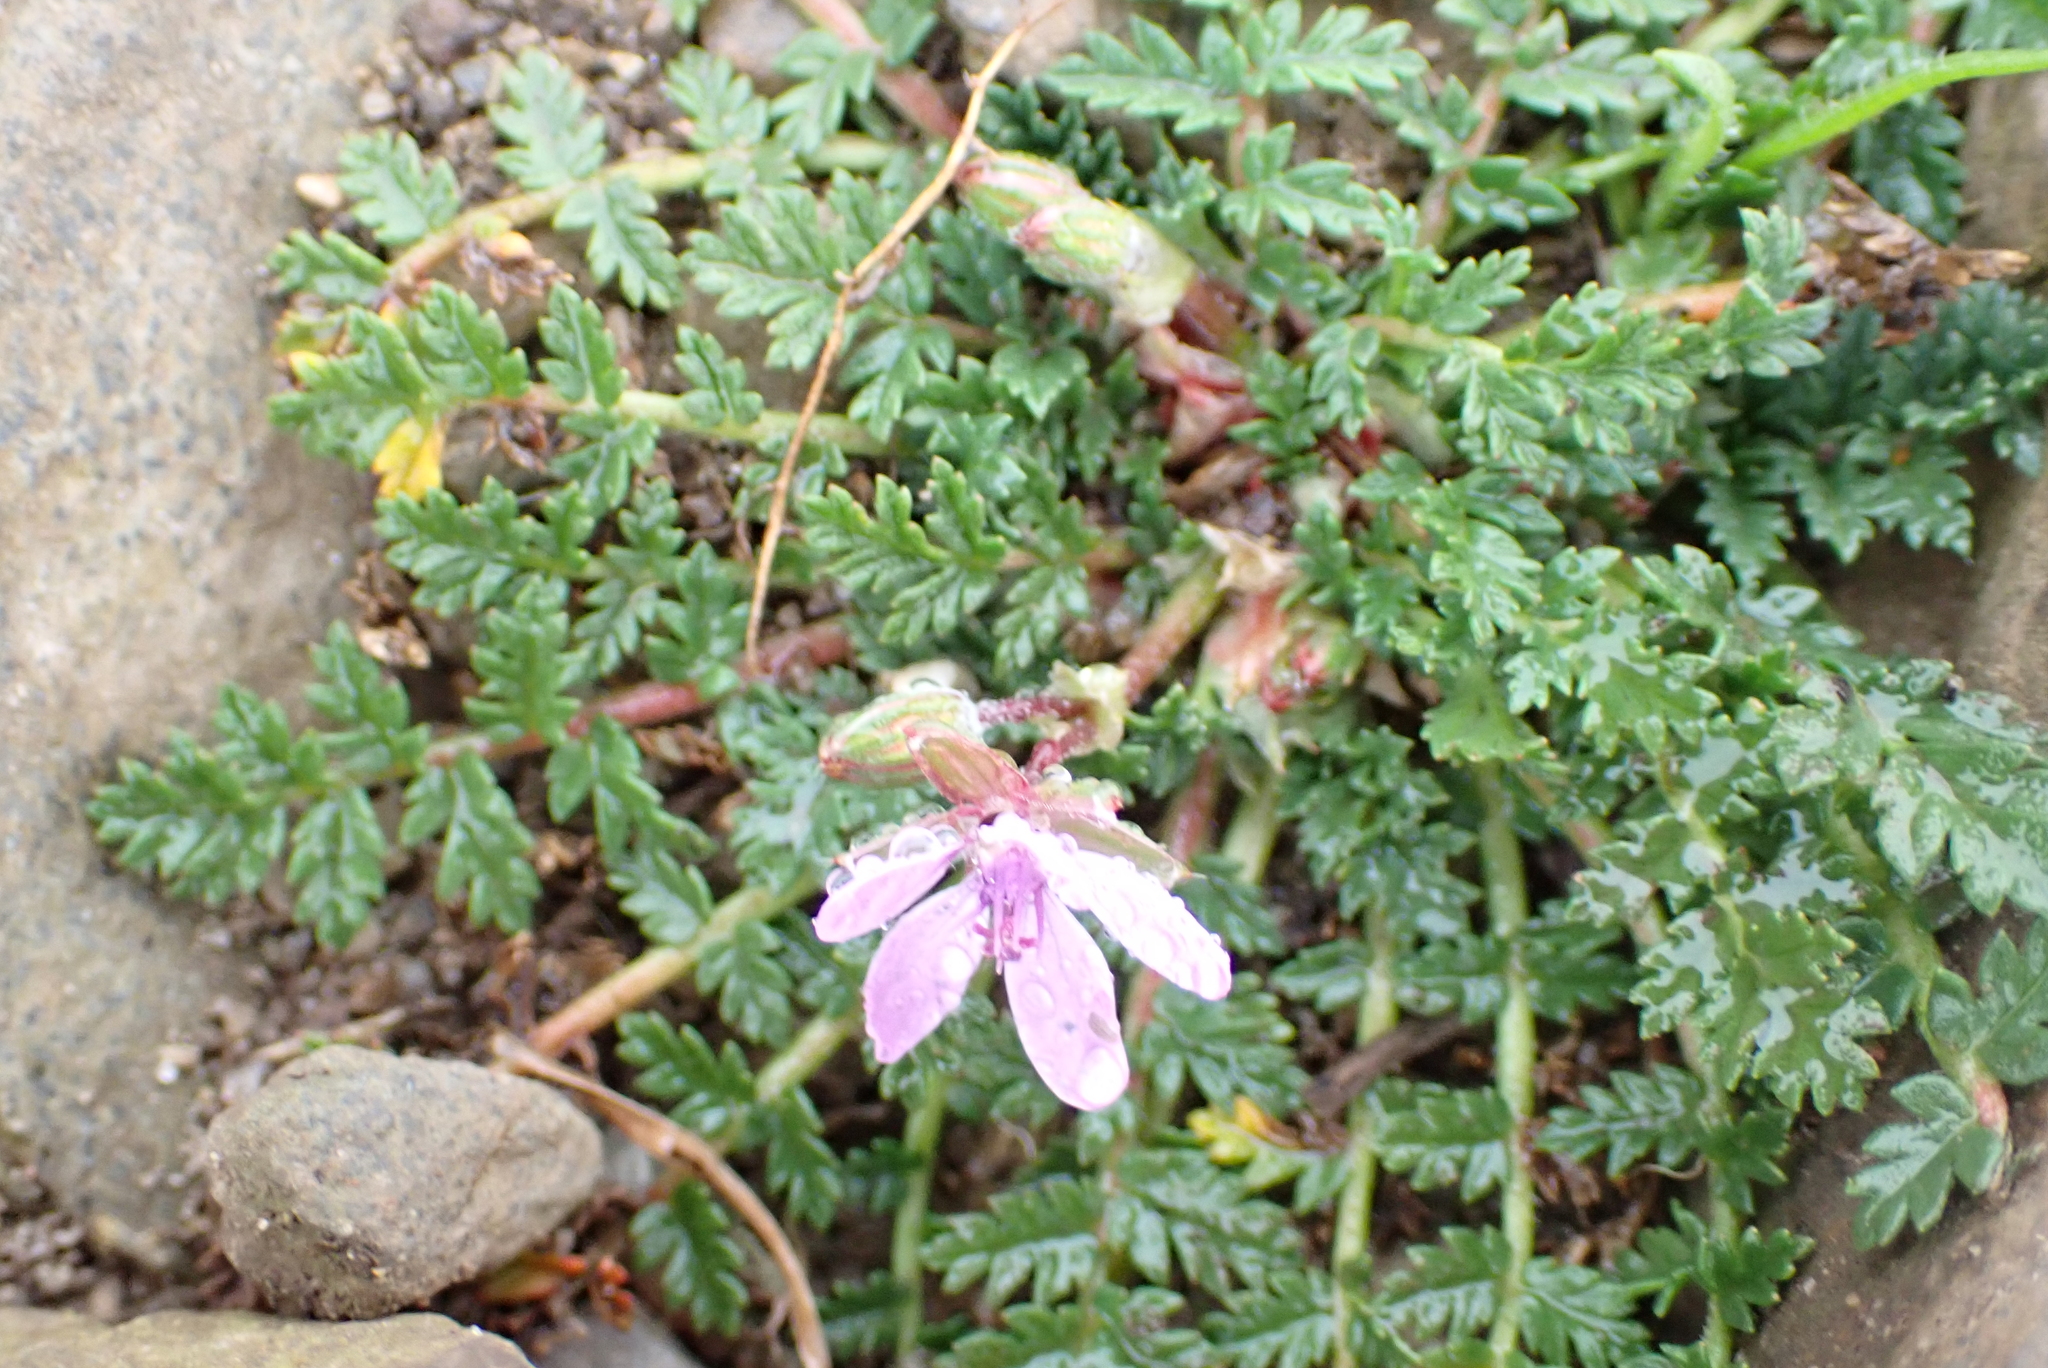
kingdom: Plantae
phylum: Tracheophyta
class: Magnoliopsida
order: Geraniales
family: Geraniaceae
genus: Erodium
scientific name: Erodium cicutarium
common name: Common stork's-bill
